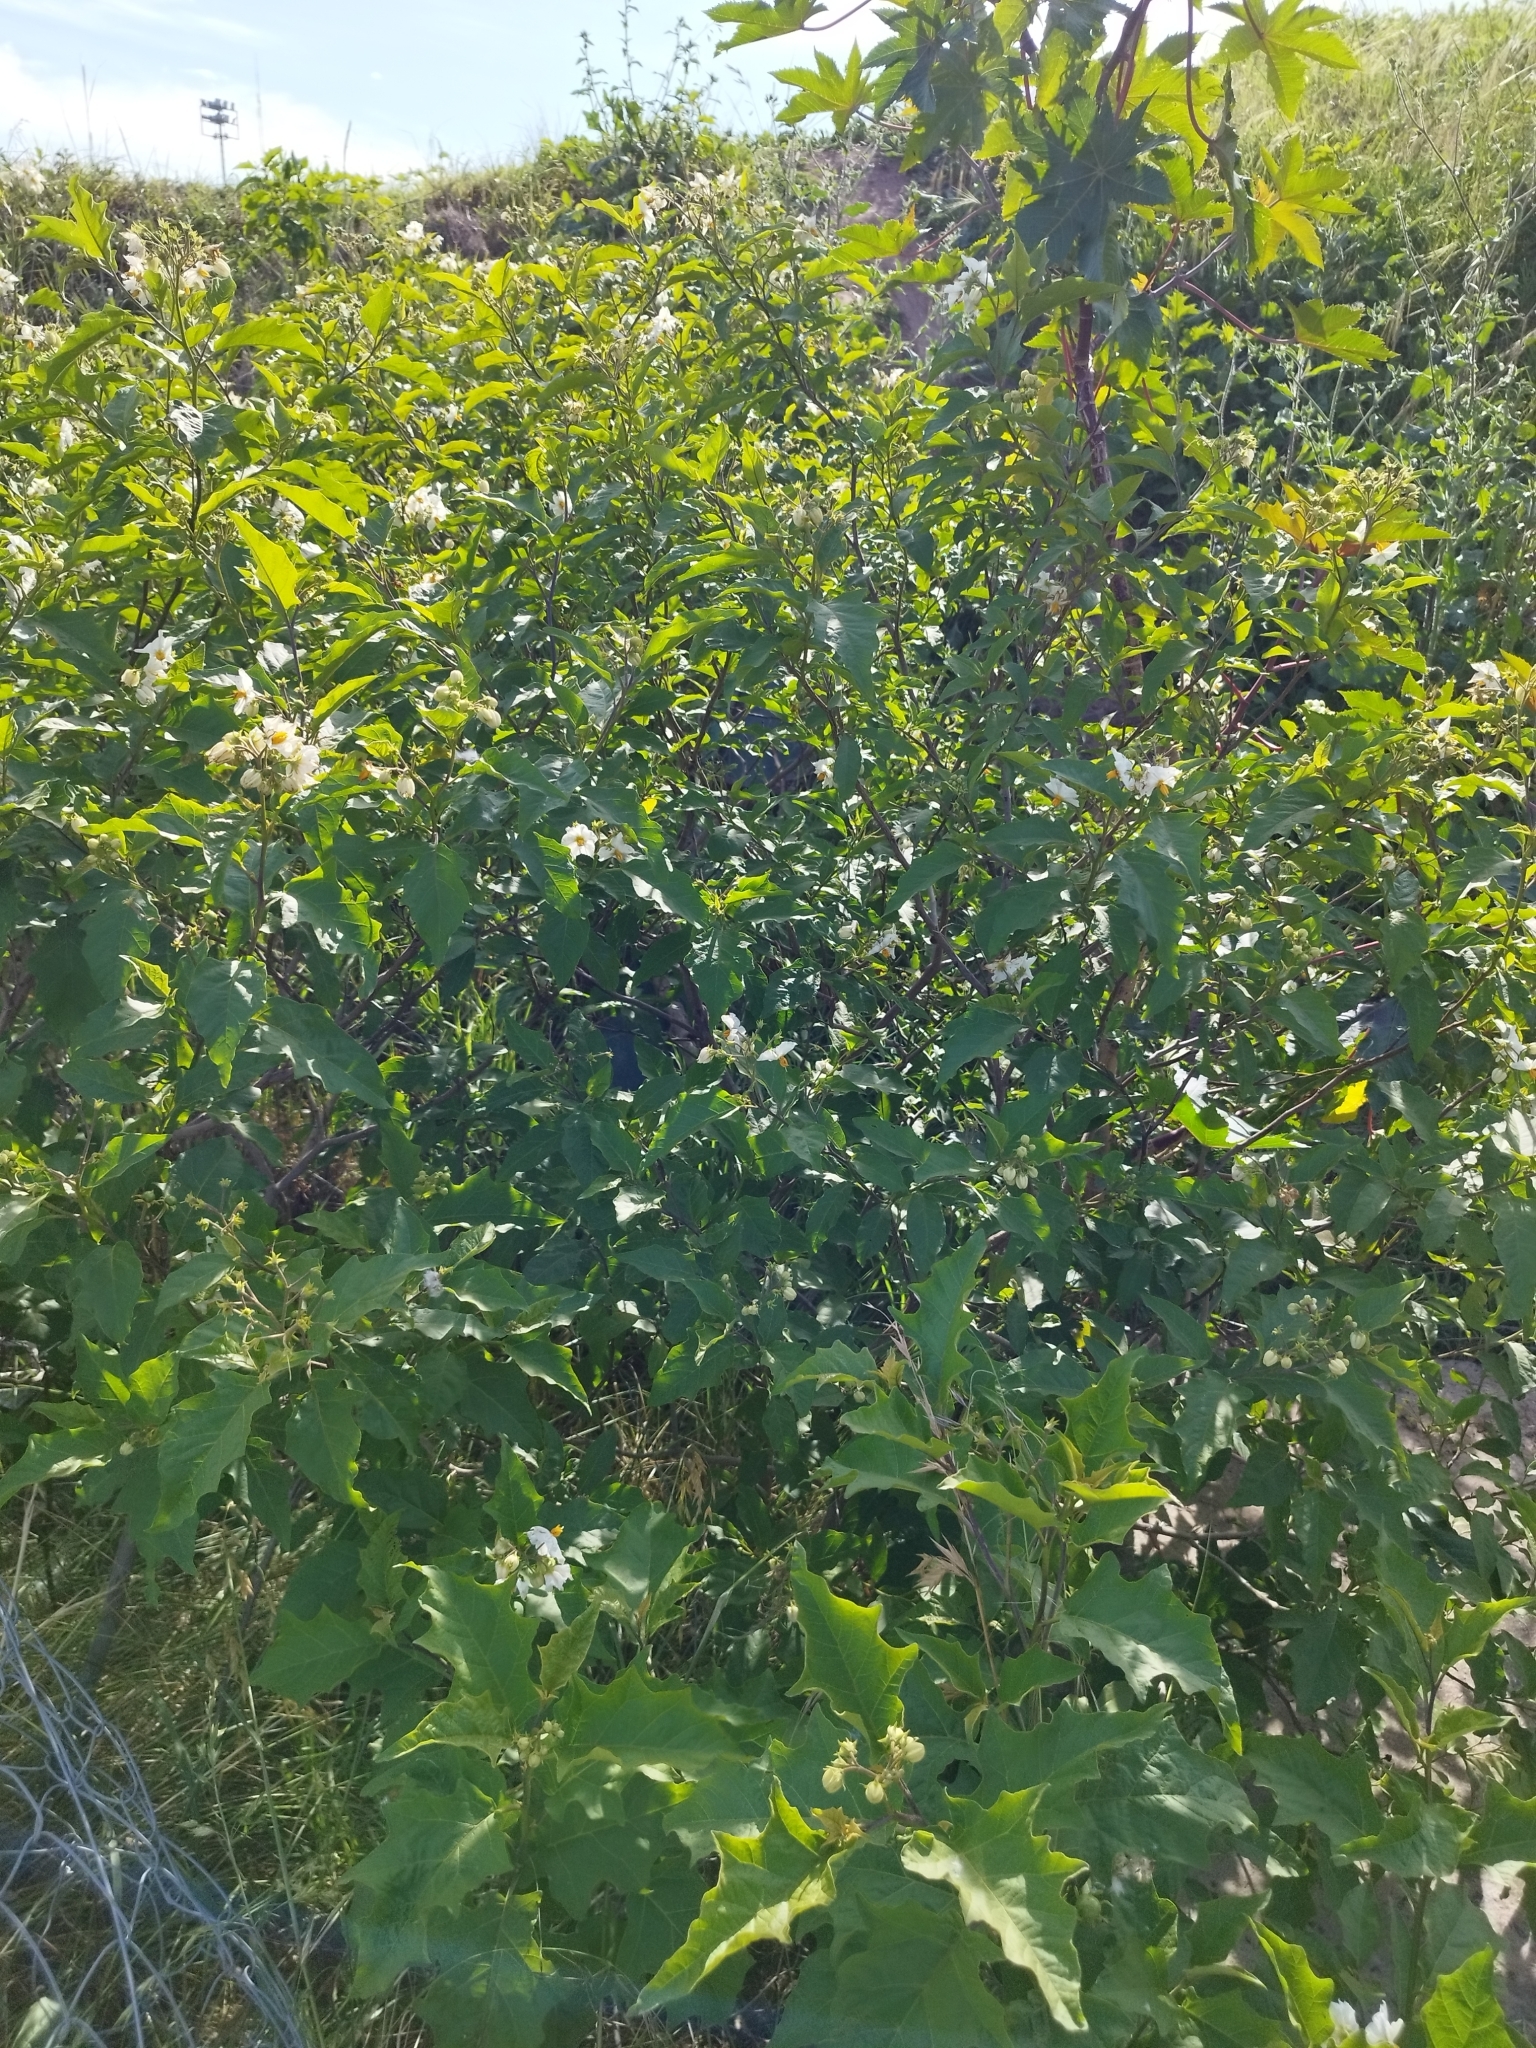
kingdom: Plantae
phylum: Tracheophyta
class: Magnoliopsida
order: Solanales
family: Solanaceae
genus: Solanum
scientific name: Solanum bonariense
